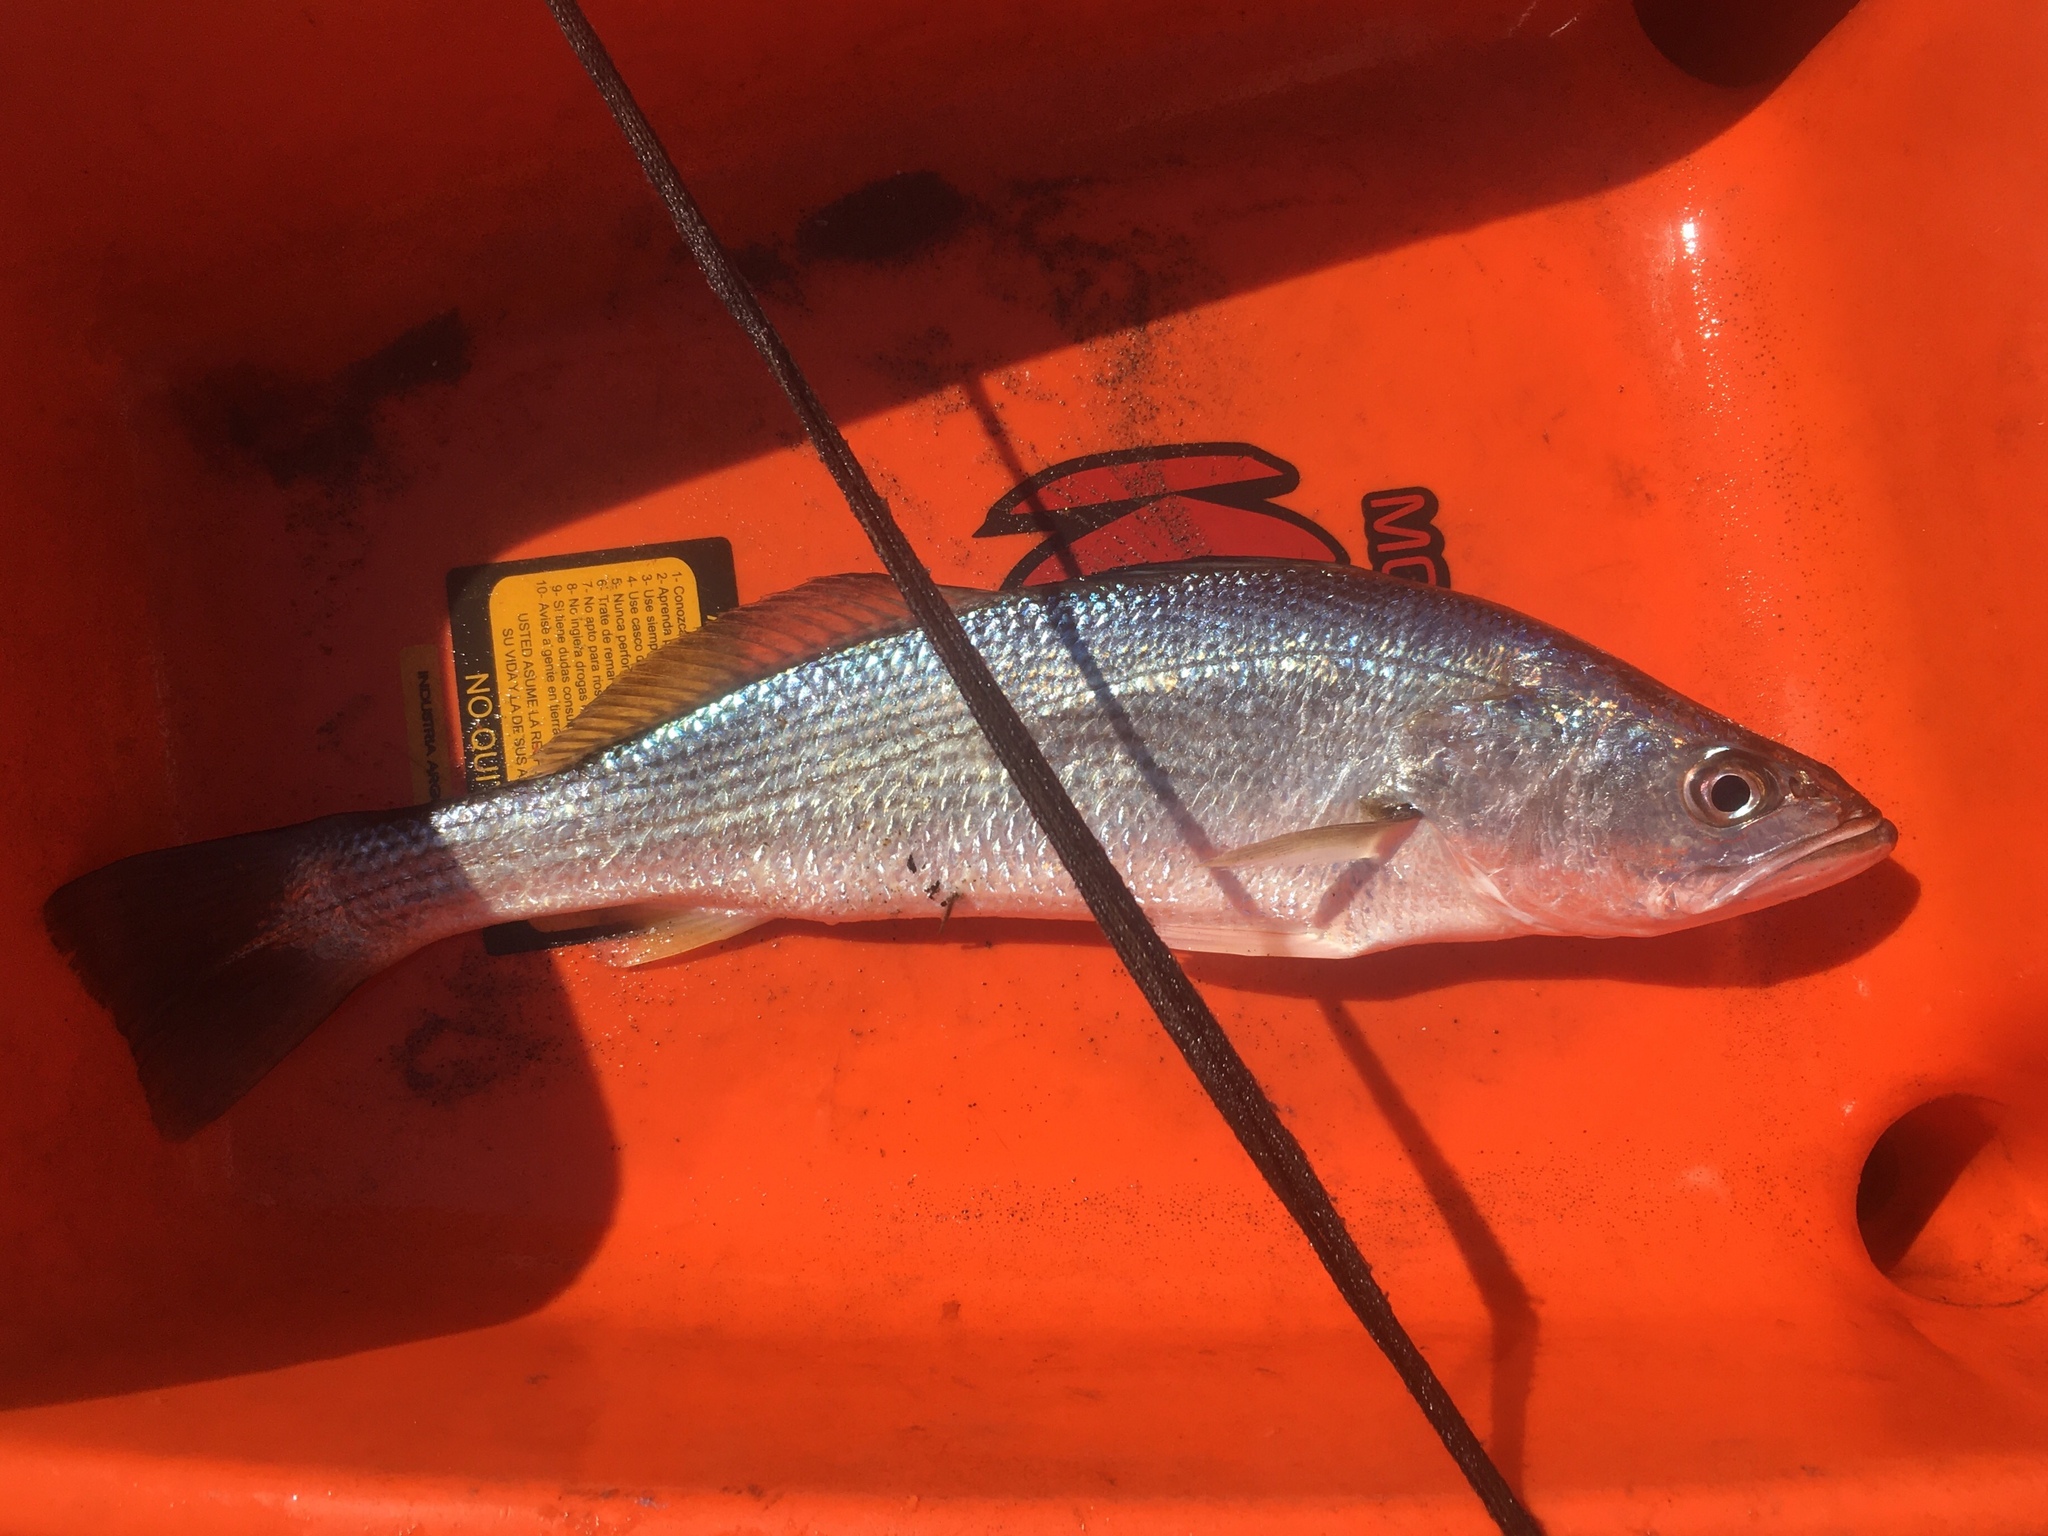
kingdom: Animalia
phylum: Chordata
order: Perciformes
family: Sciaenidae
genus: Cynoscion
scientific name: Cynoscion guatucupa
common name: Stripped weakfish
